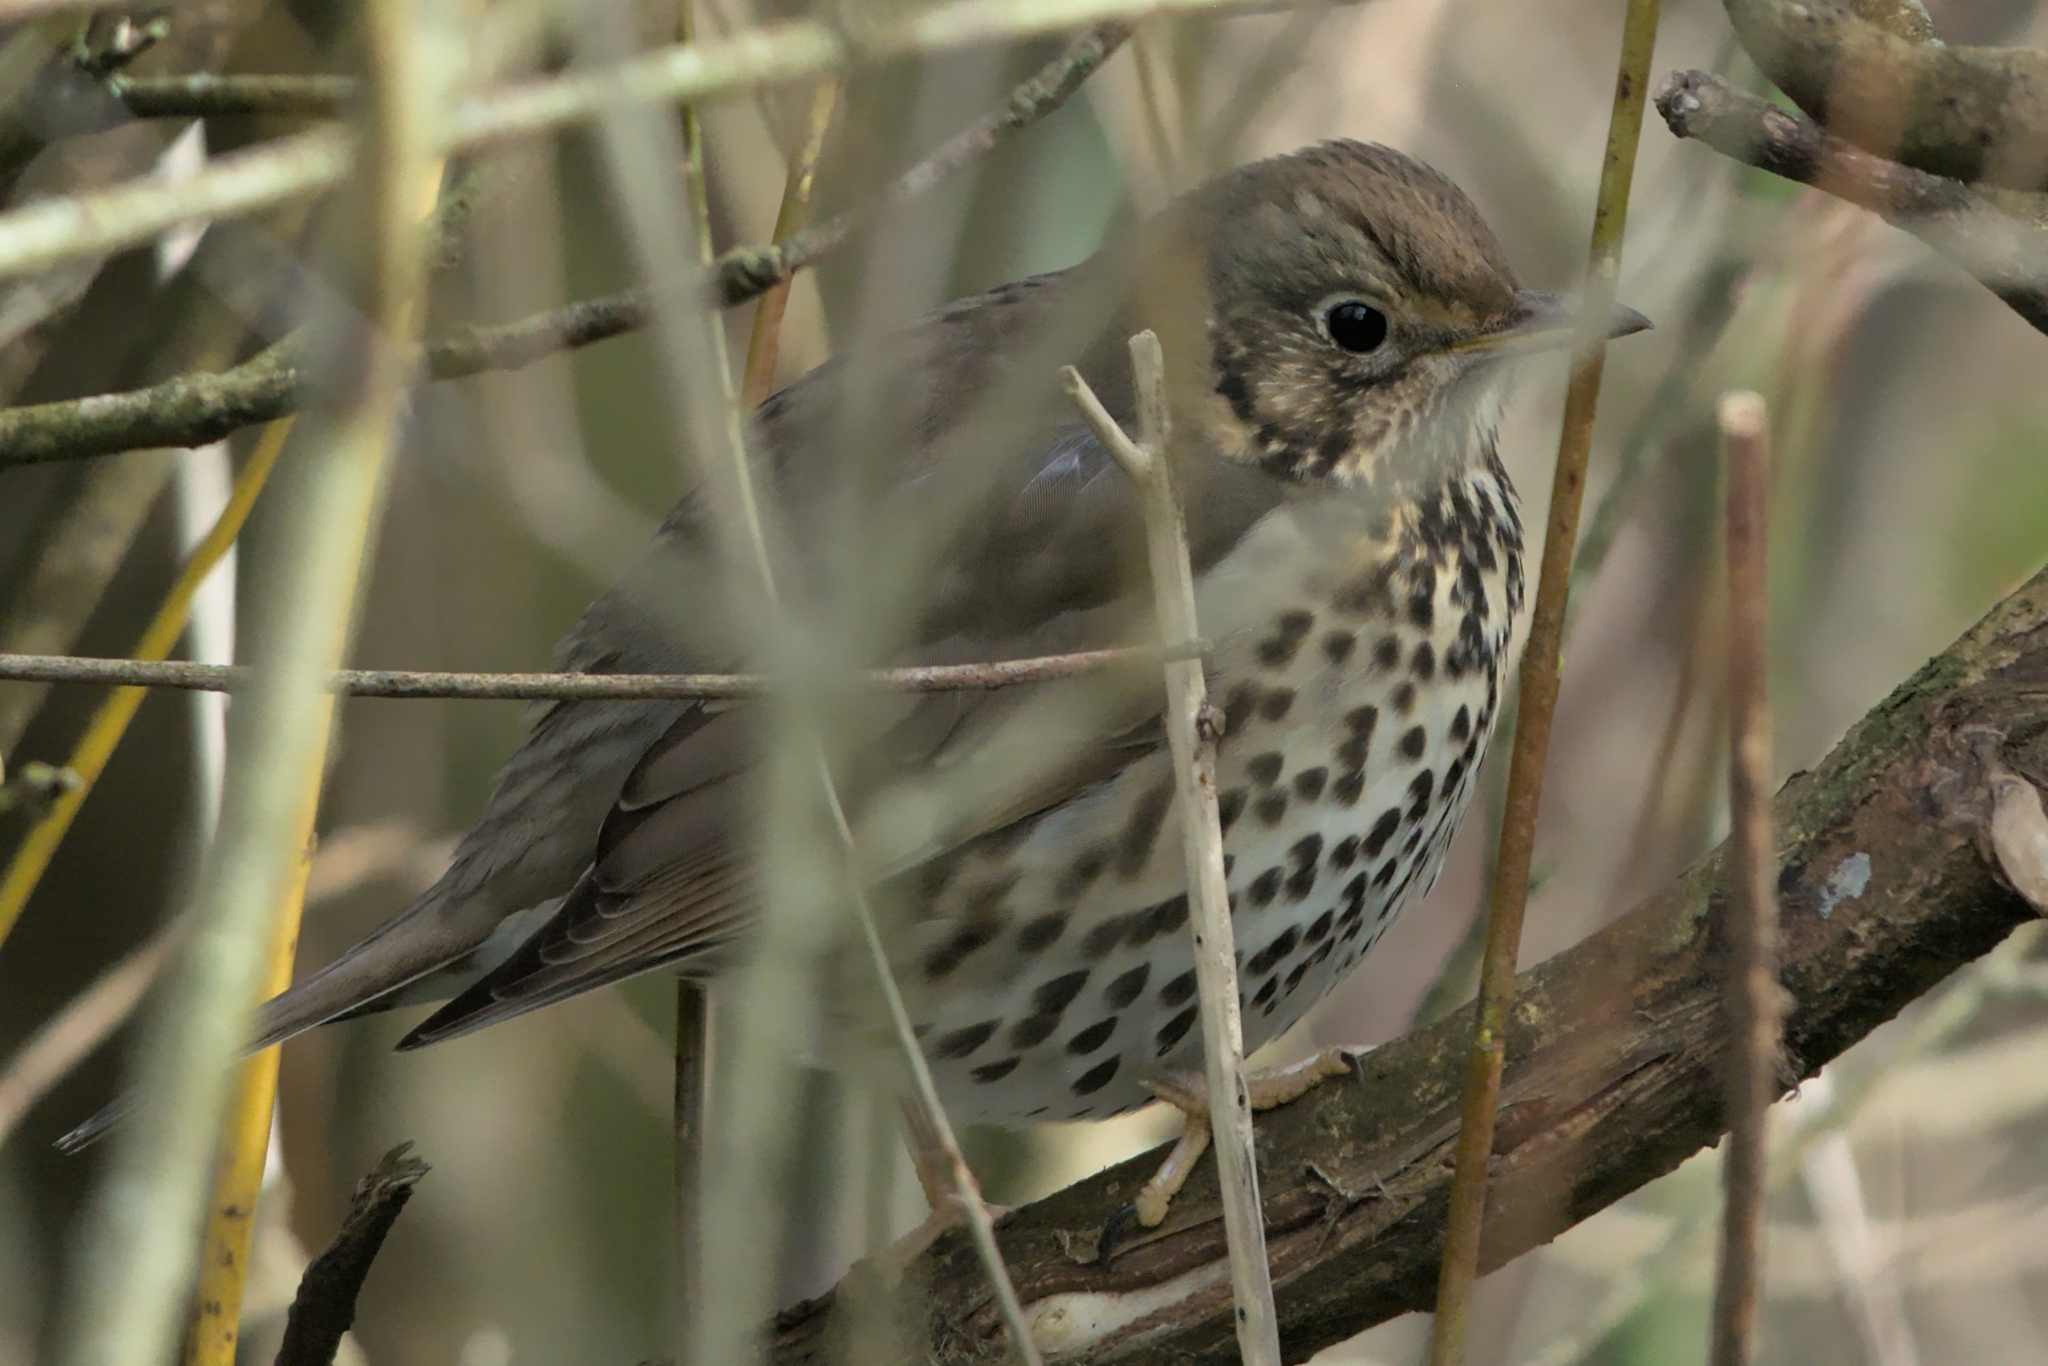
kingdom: Animalia
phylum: Chordata
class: Aves
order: Passeriformes
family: Turdidae
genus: Turdus
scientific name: Turdus philomelos
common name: Song thrush
